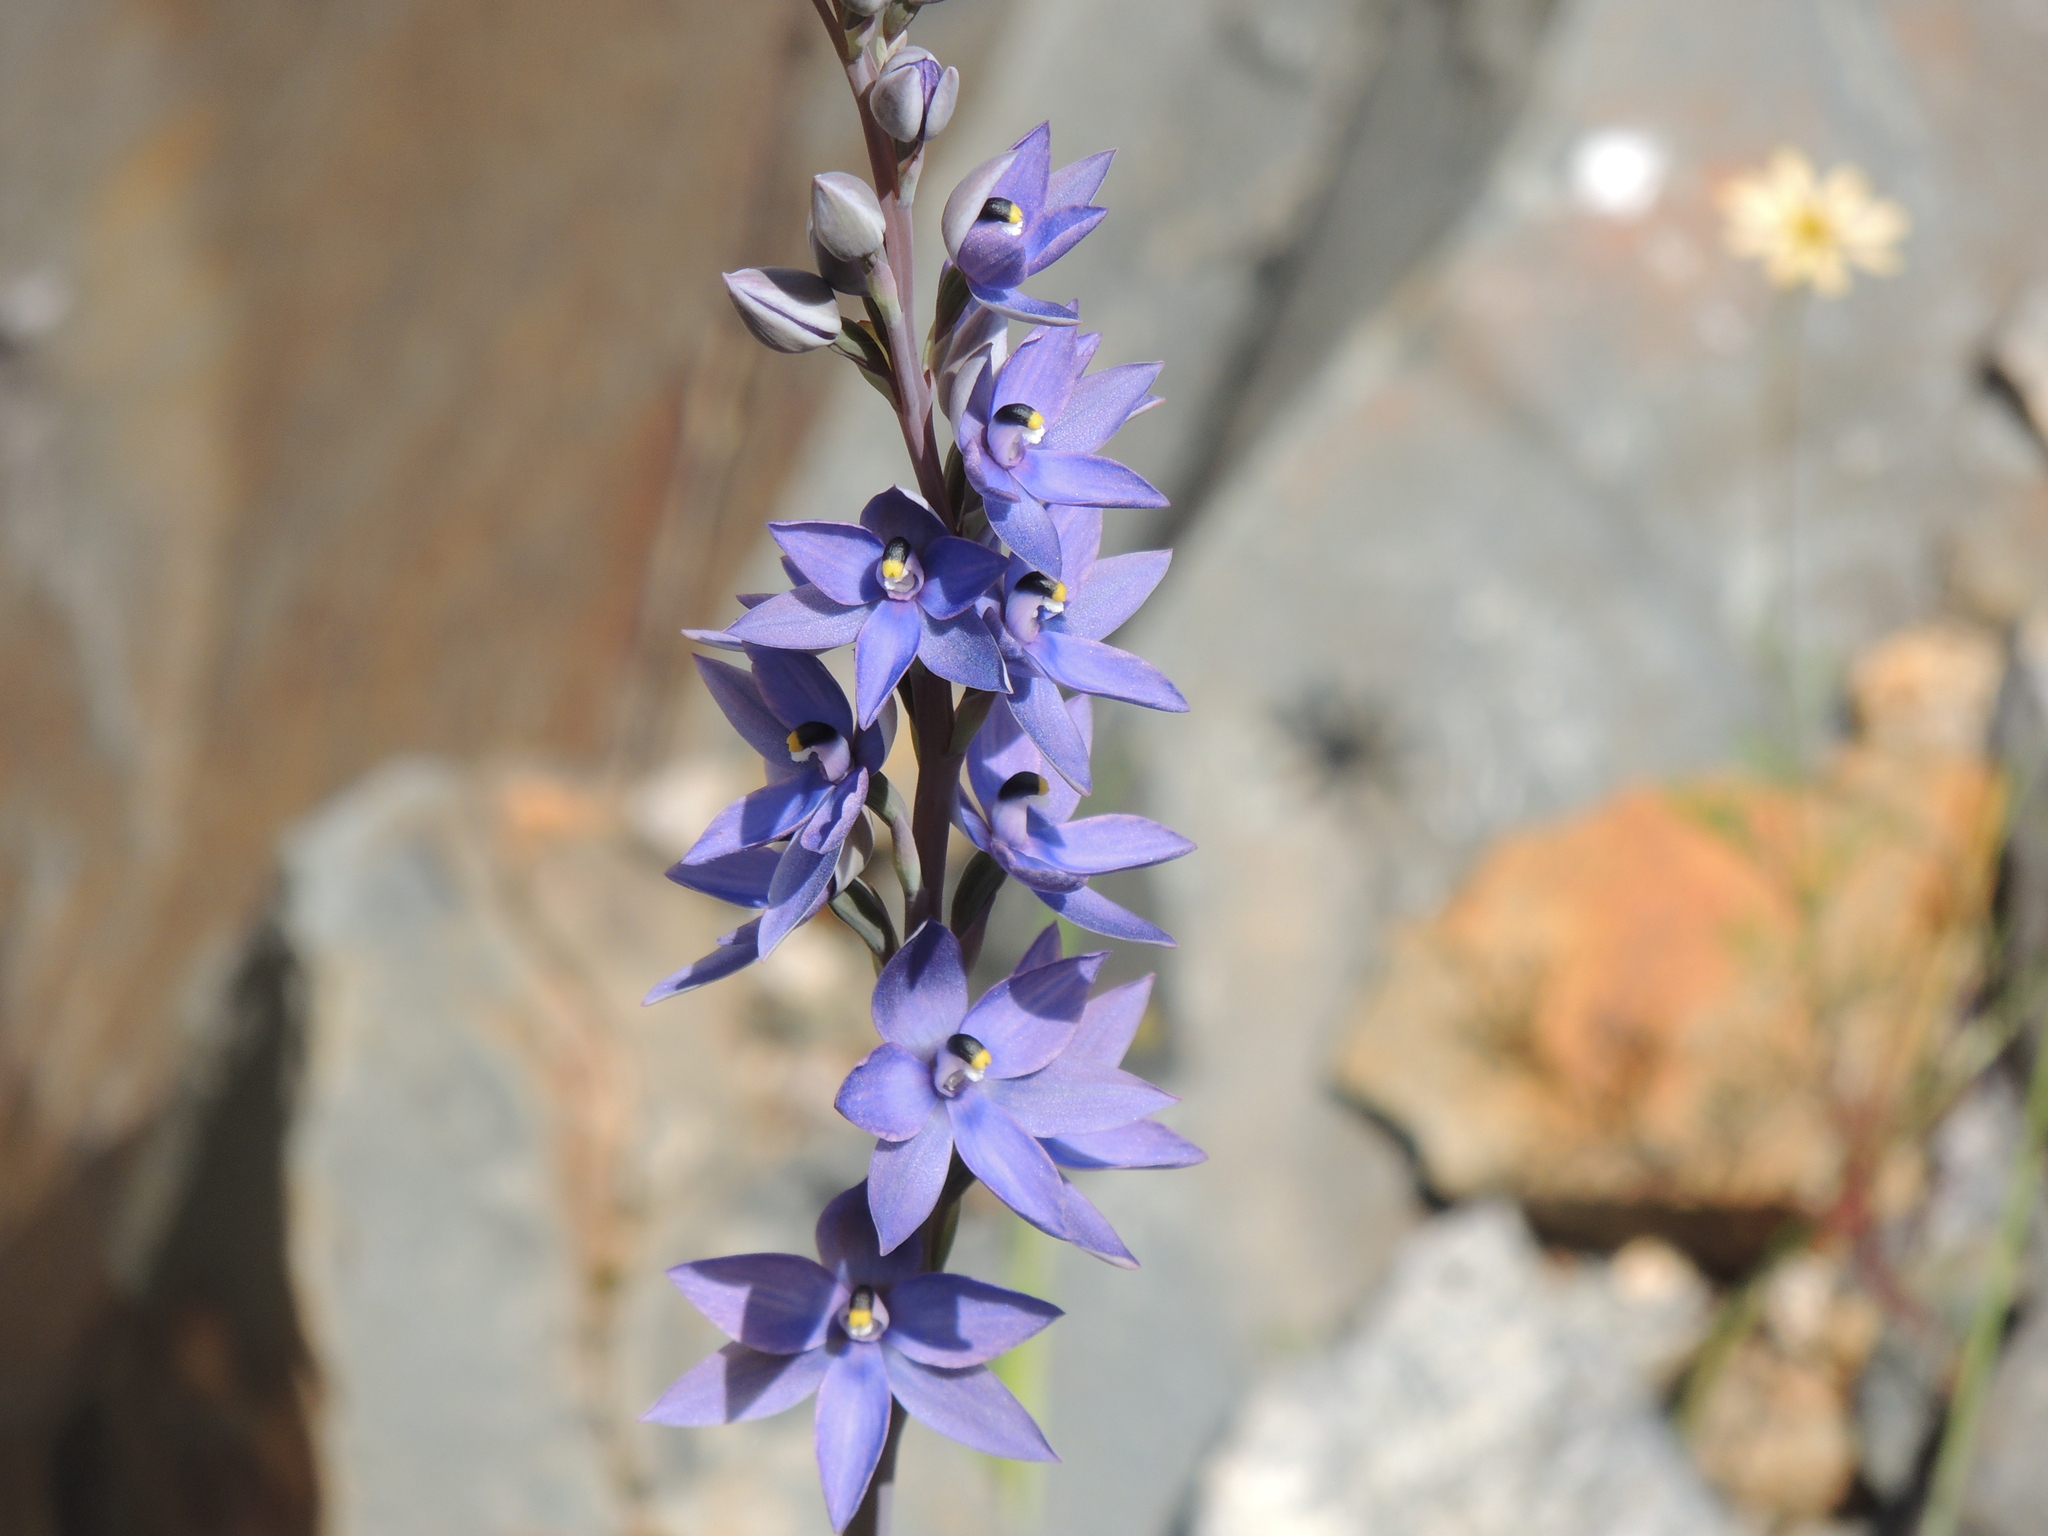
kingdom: Plantae
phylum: Tracheophyta
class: Liliopsida
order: Asparagales
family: Orchidaceae
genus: Thelymitra
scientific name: Thelymitra macrophylla
